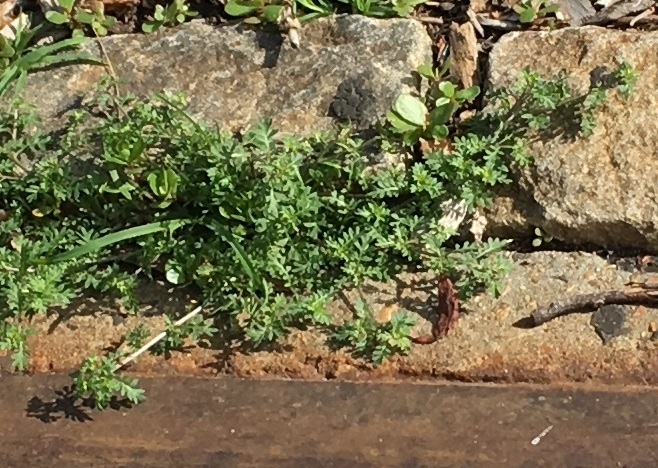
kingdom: Plantae
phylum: Tracheophyta
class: Magnoliopsida
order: Brassicales
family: Brassicaceae
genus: Lepidium
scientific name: Lepidium didymum
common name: Lesser swinecress
